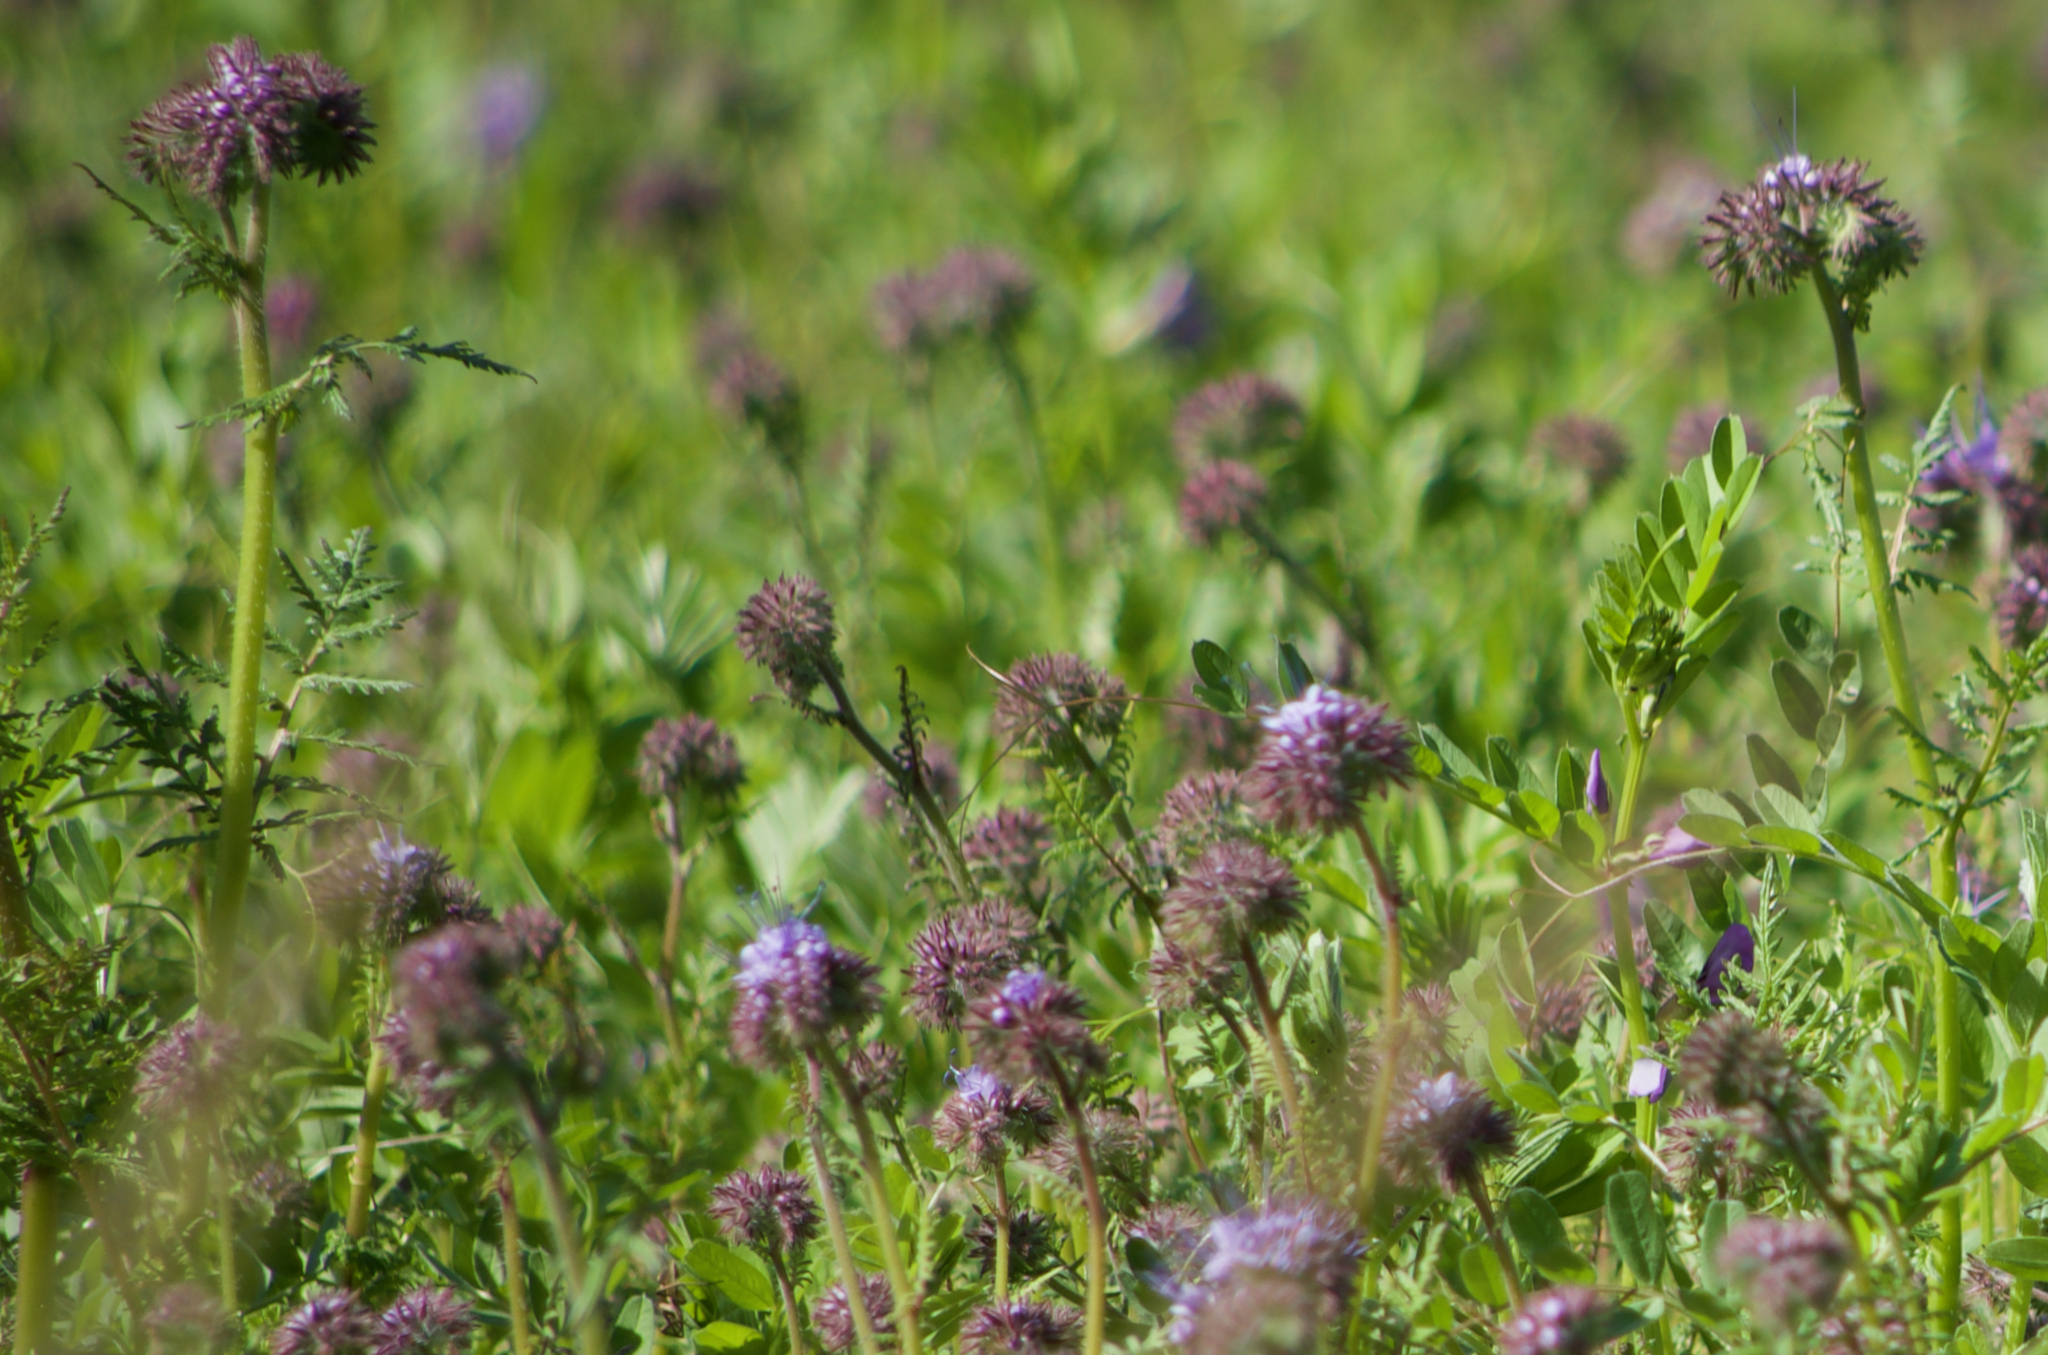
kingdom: Plantae
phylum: Tracheophyta
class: Magnoliopsida
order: Boraginales
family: Hydrophyllaceae
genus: Phacelia
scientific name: Phacelia tanacetifolia
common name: Phacelia
